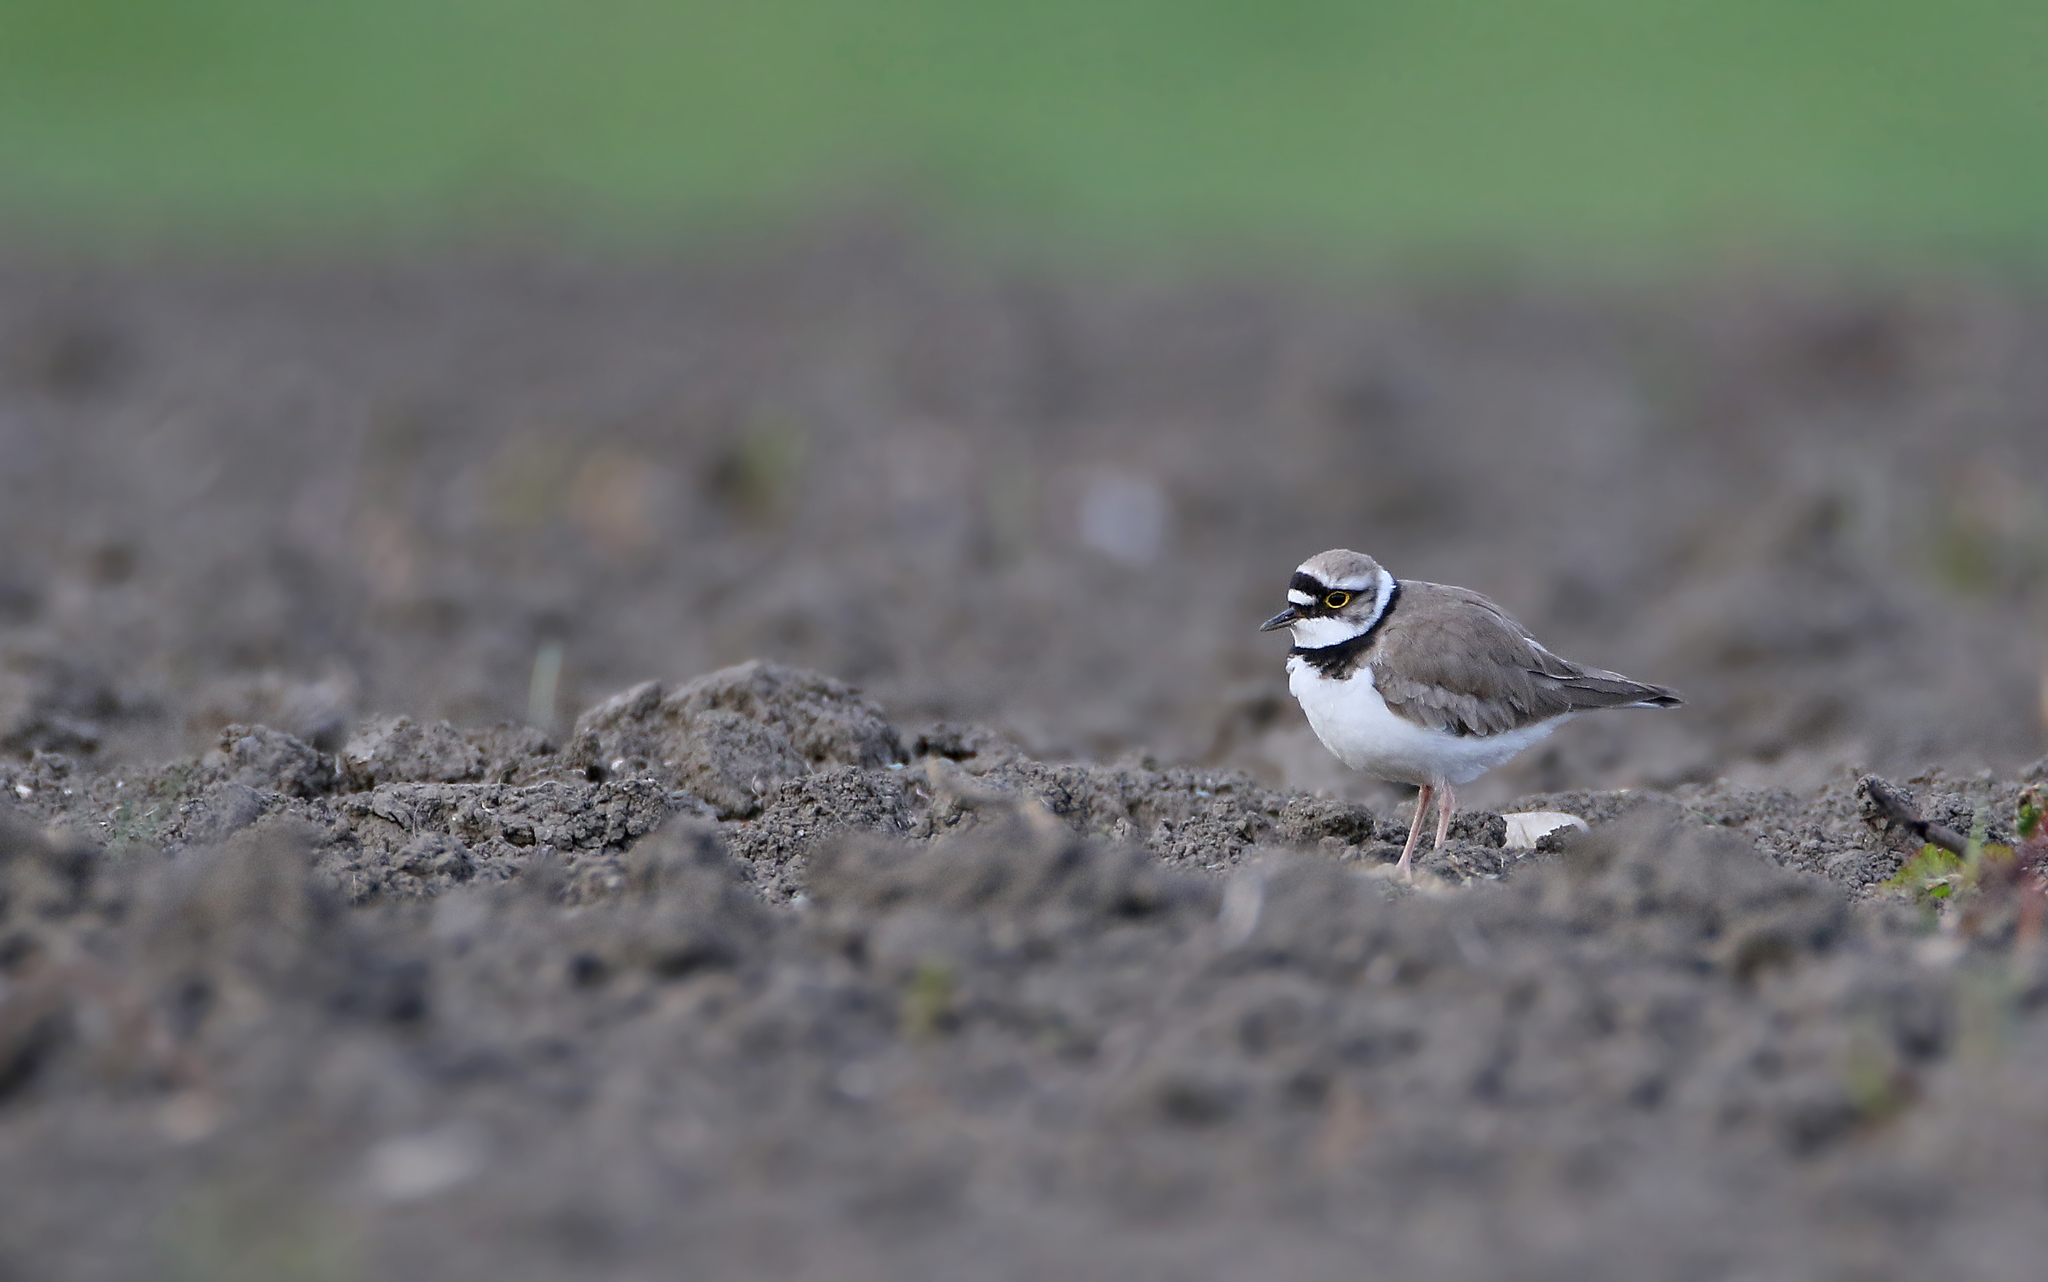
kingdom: Animalia
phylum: Chordata
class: Aves
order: Charadriiformes
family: Charadriidae
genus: Charadrius
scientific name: Charadrius dubius
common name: Little ringed plover
